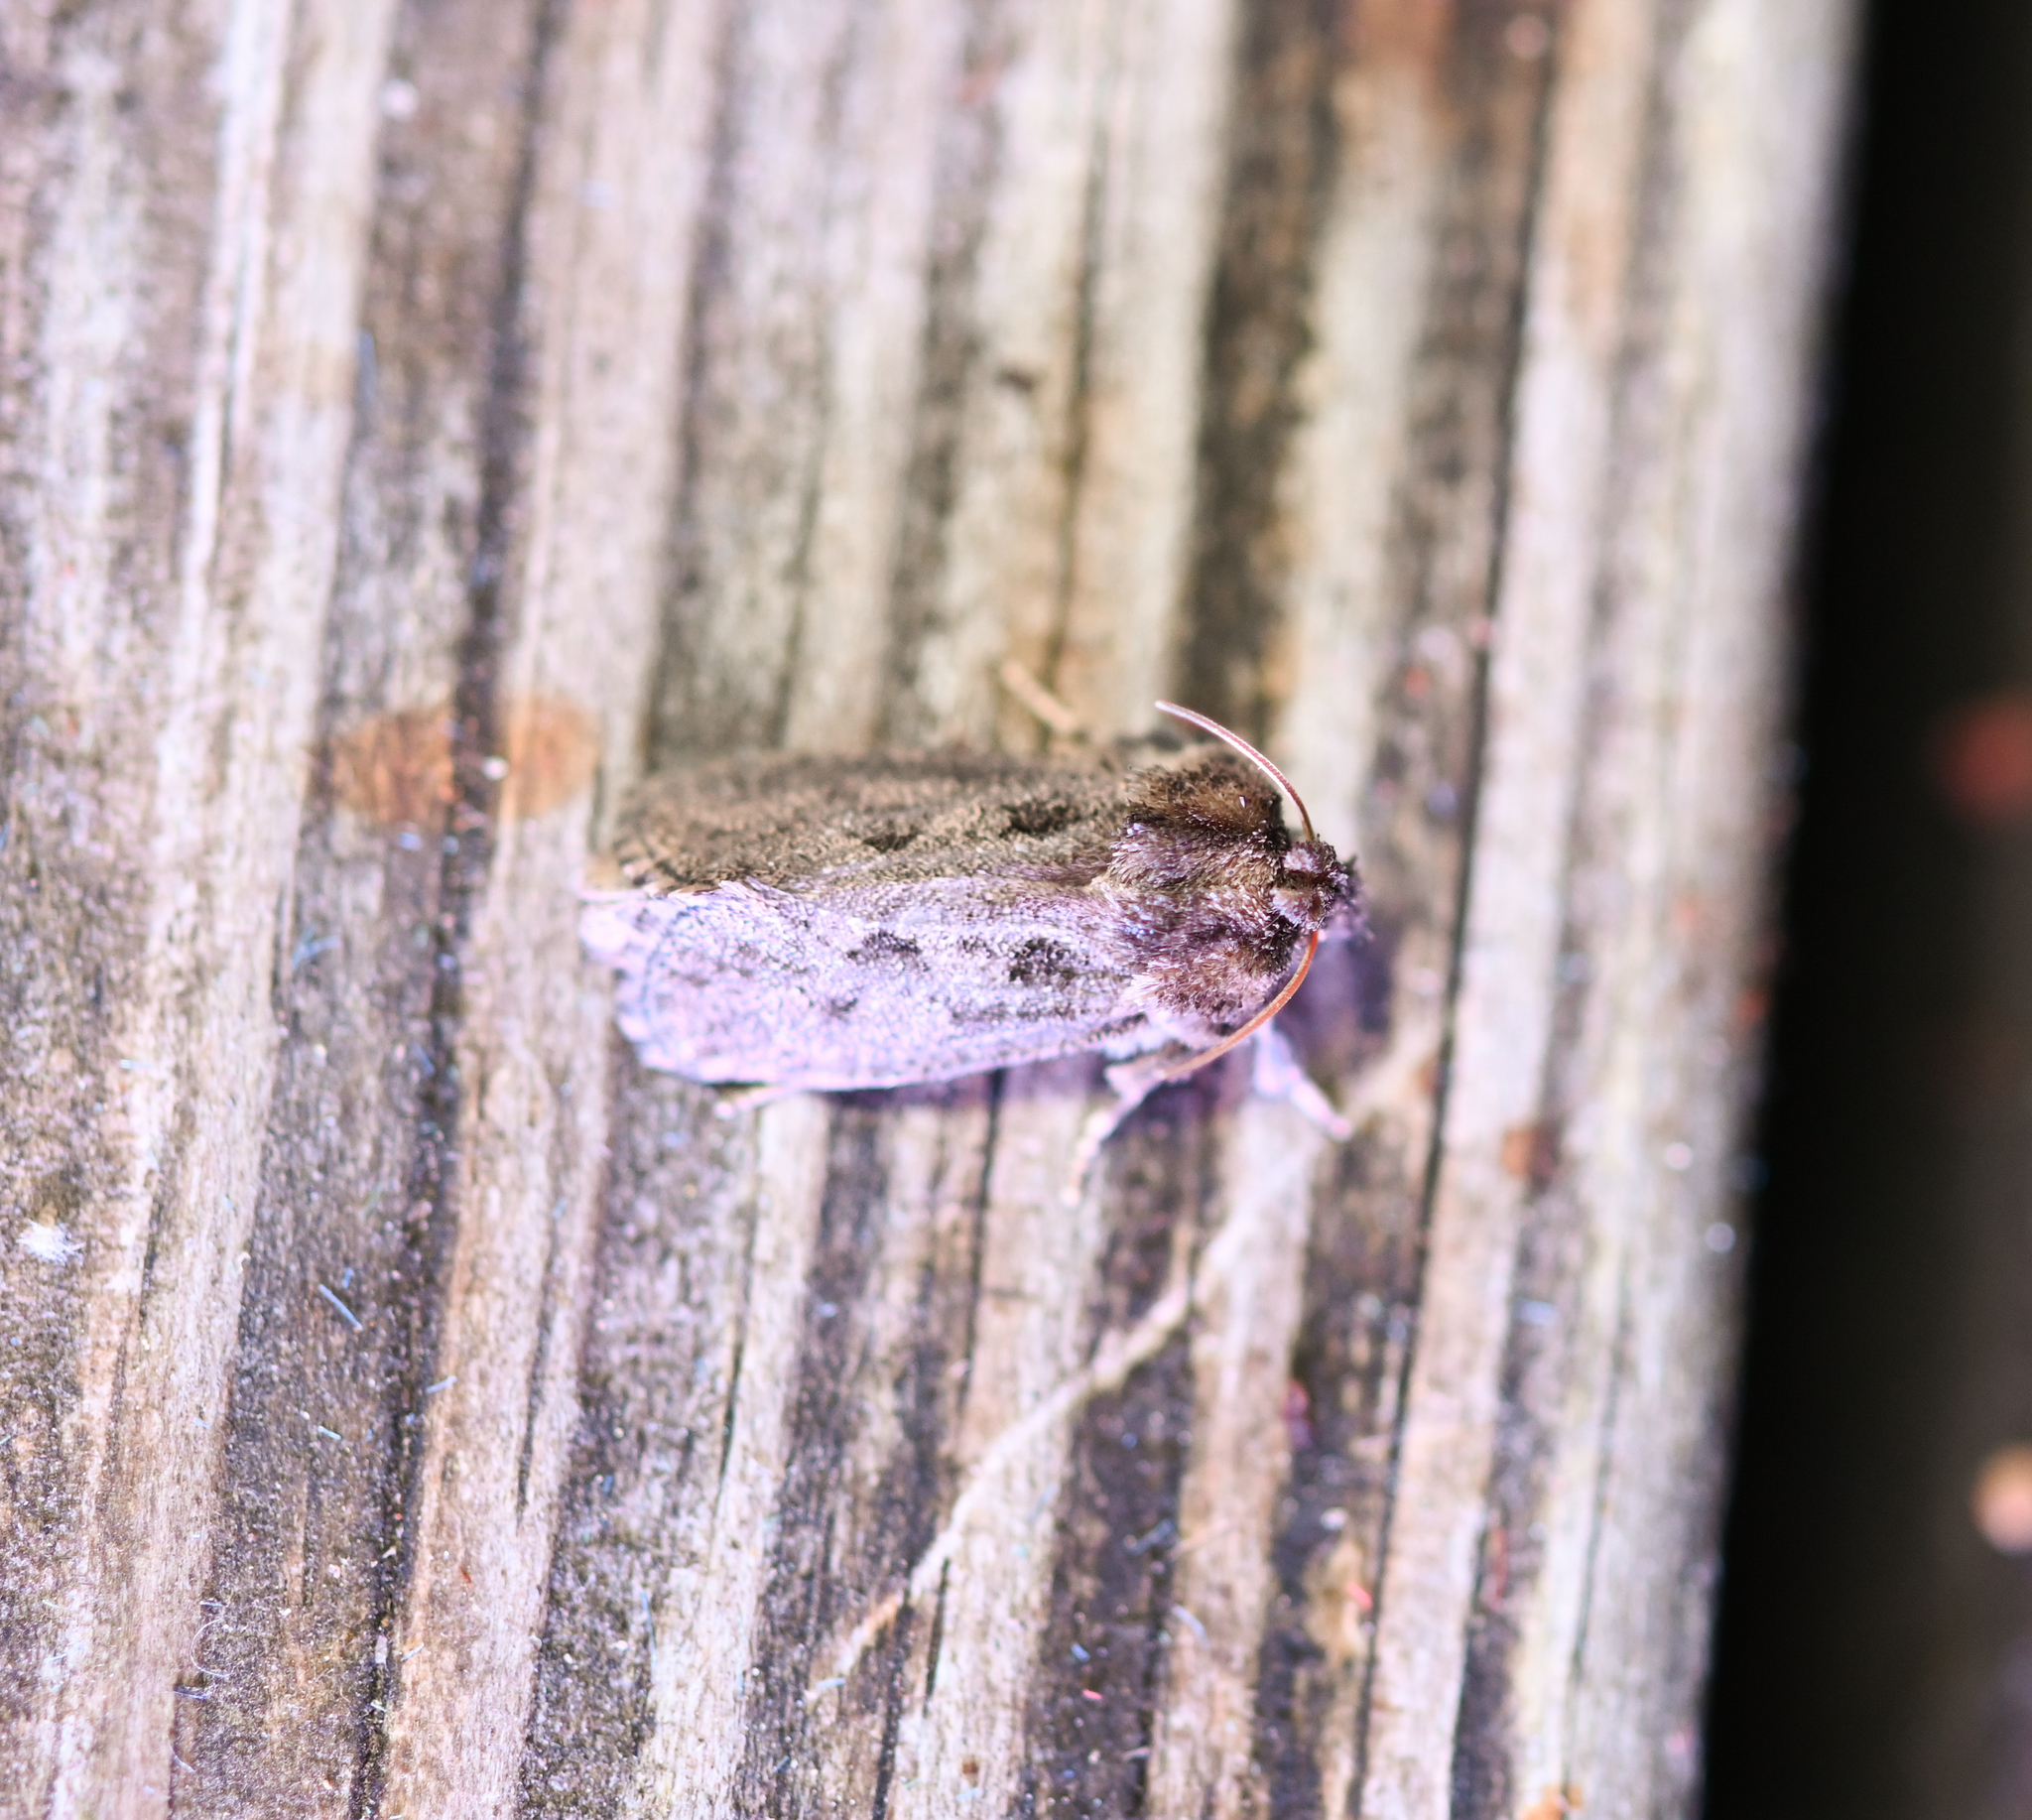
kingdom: Animalia
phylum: Arthropoda
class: Insecta
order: Lepidoptera
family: Tineidae
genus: Acrolophus
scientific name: Acrolophus arcanella
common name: Arcane grass tubeworm moth
